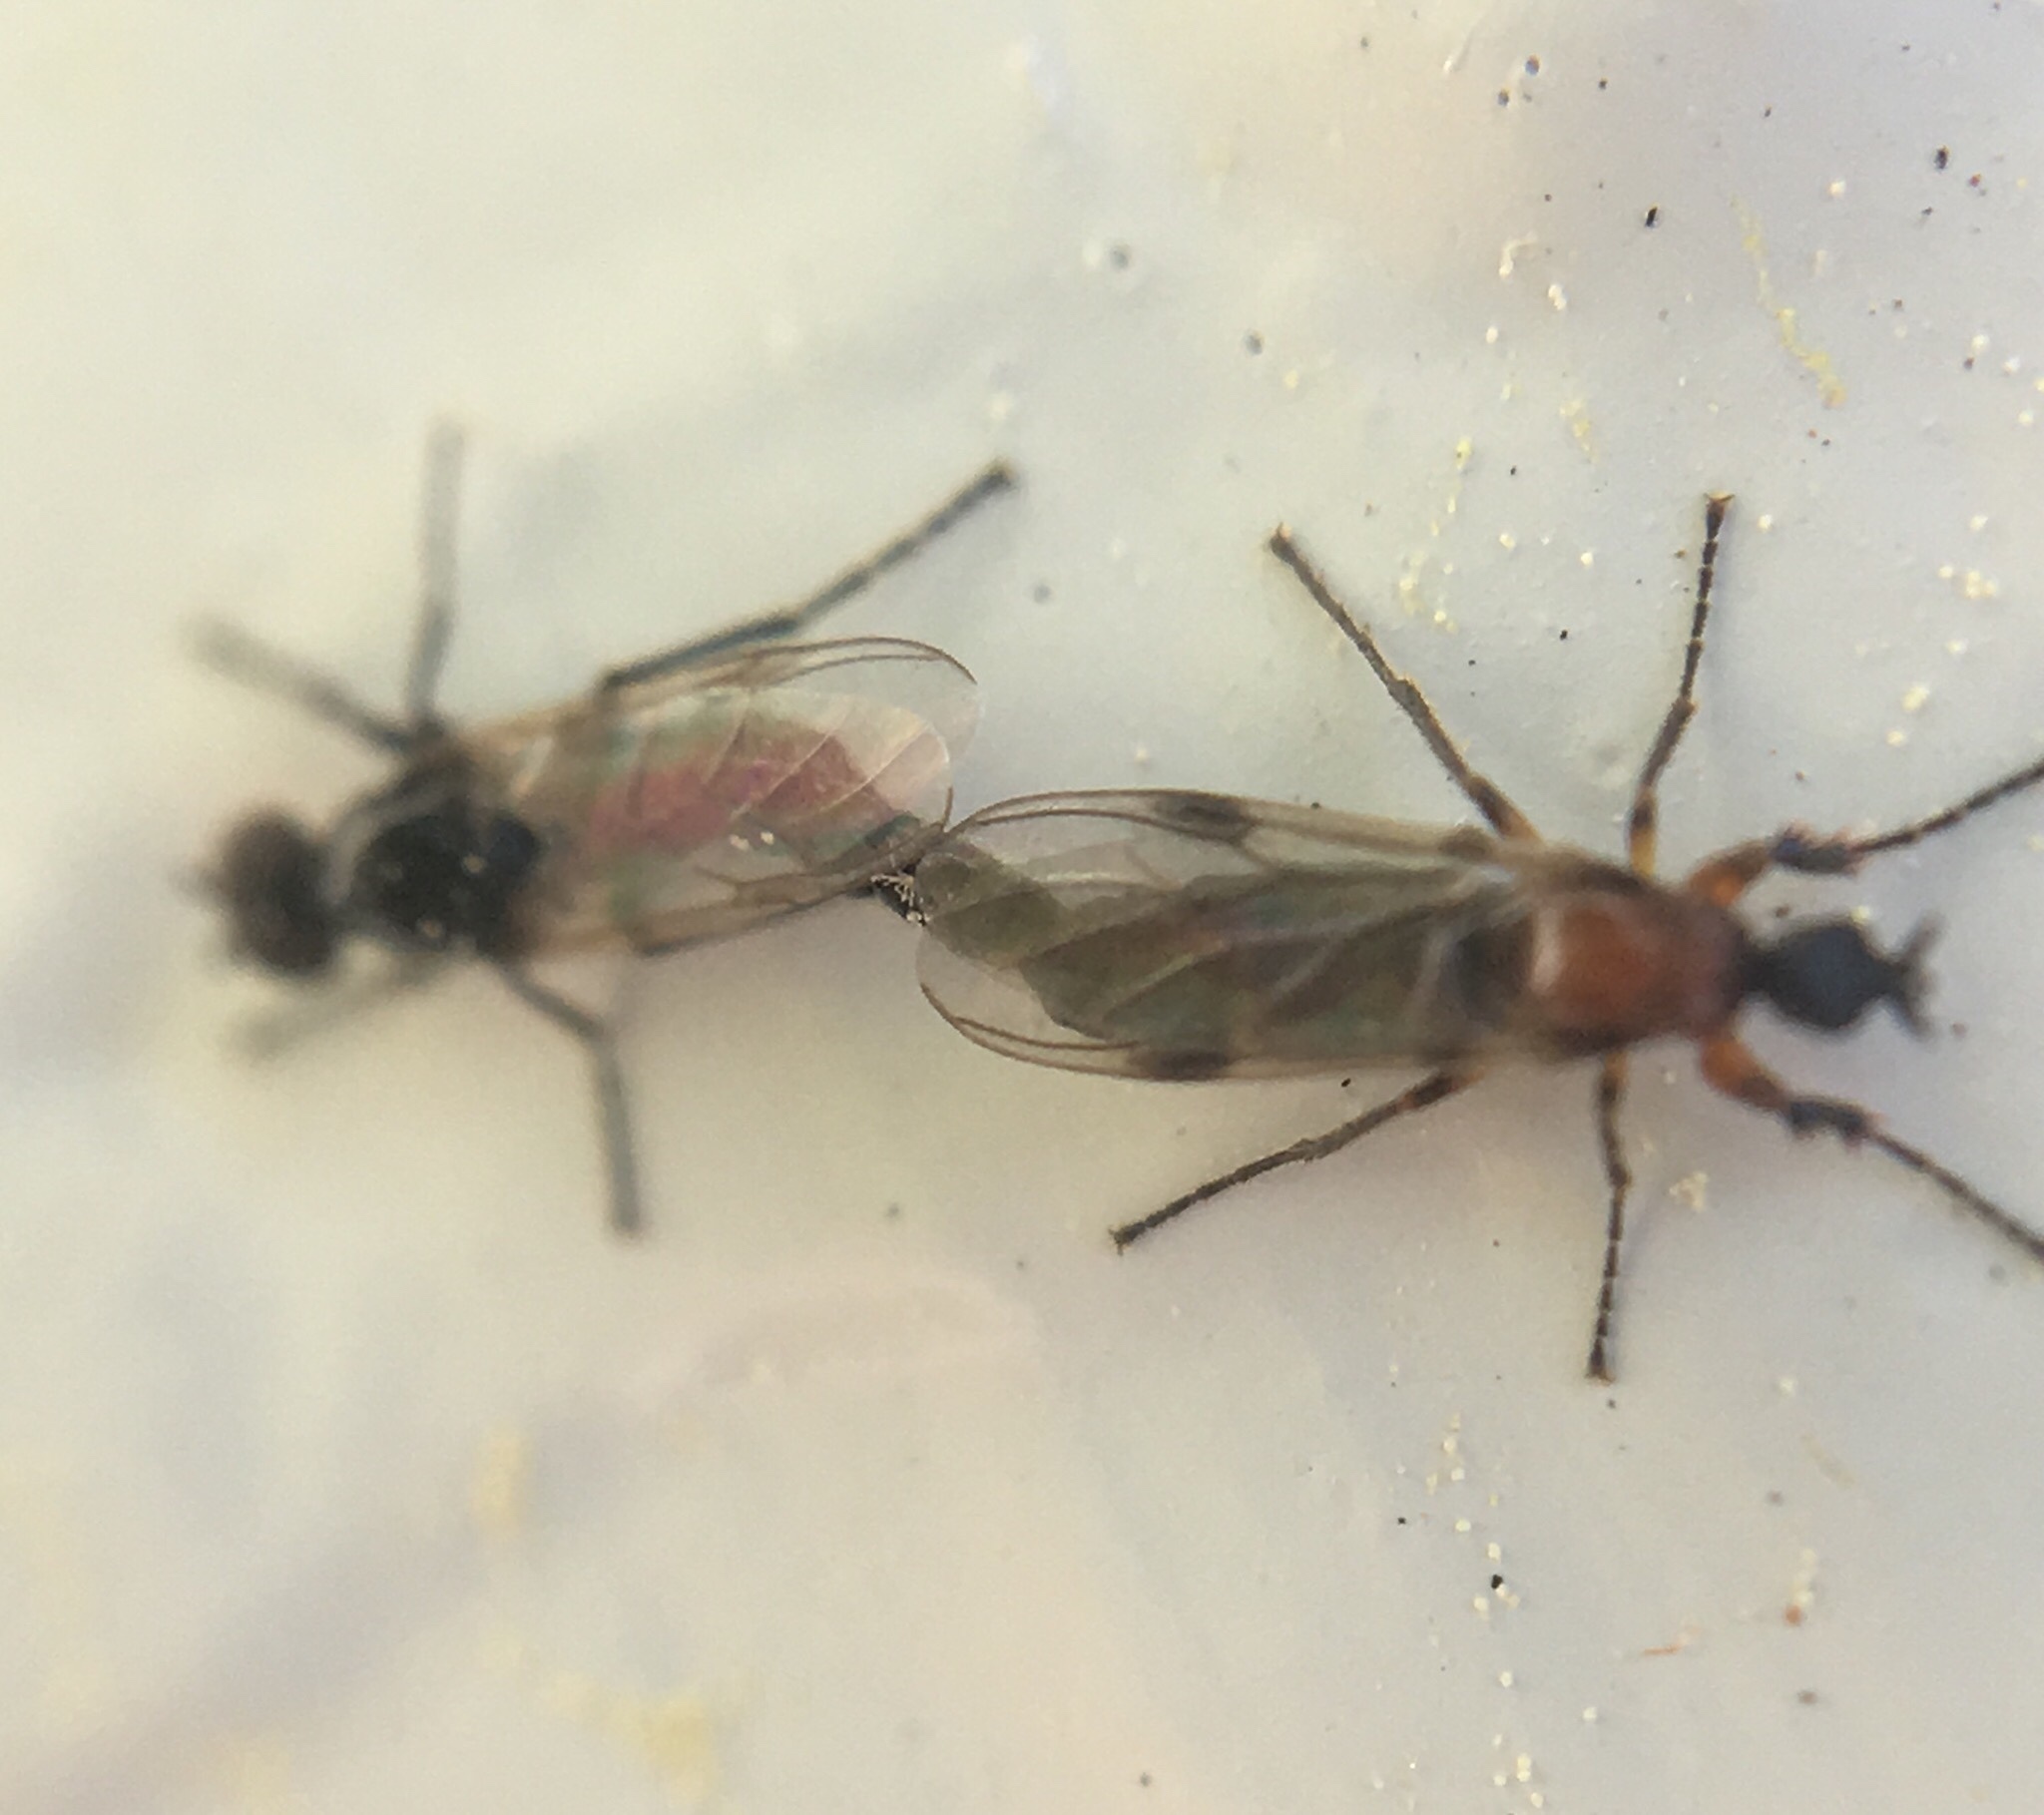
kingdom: Animalia
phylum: Arthropoda
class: Insecta
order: Diptera
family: Bibionidae
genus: Dilophus
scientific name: Dilophus tibialis
